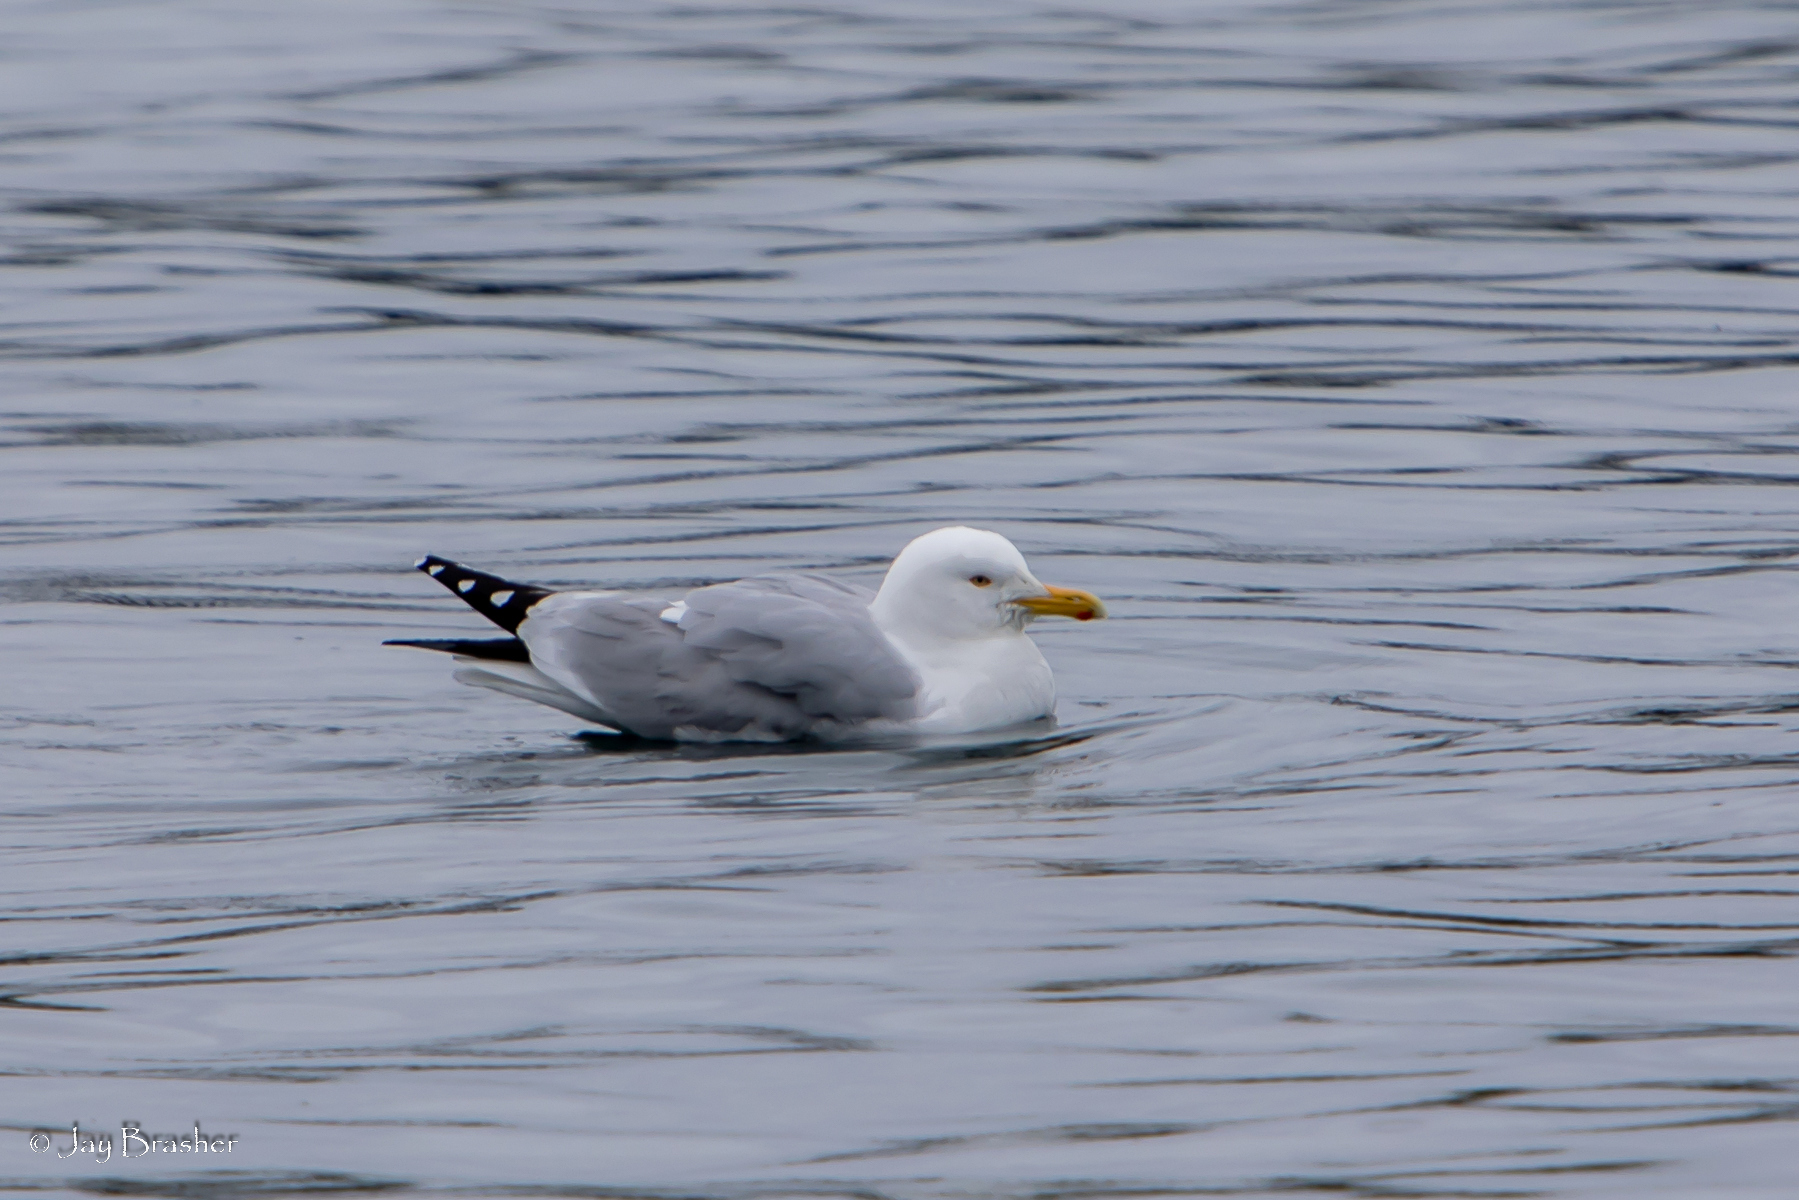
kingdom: Animalia
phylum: Chordata
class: Aves
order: Charadriiformes
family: Laridae
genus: Larus
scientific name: Larus argentatus
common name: Herring gull
